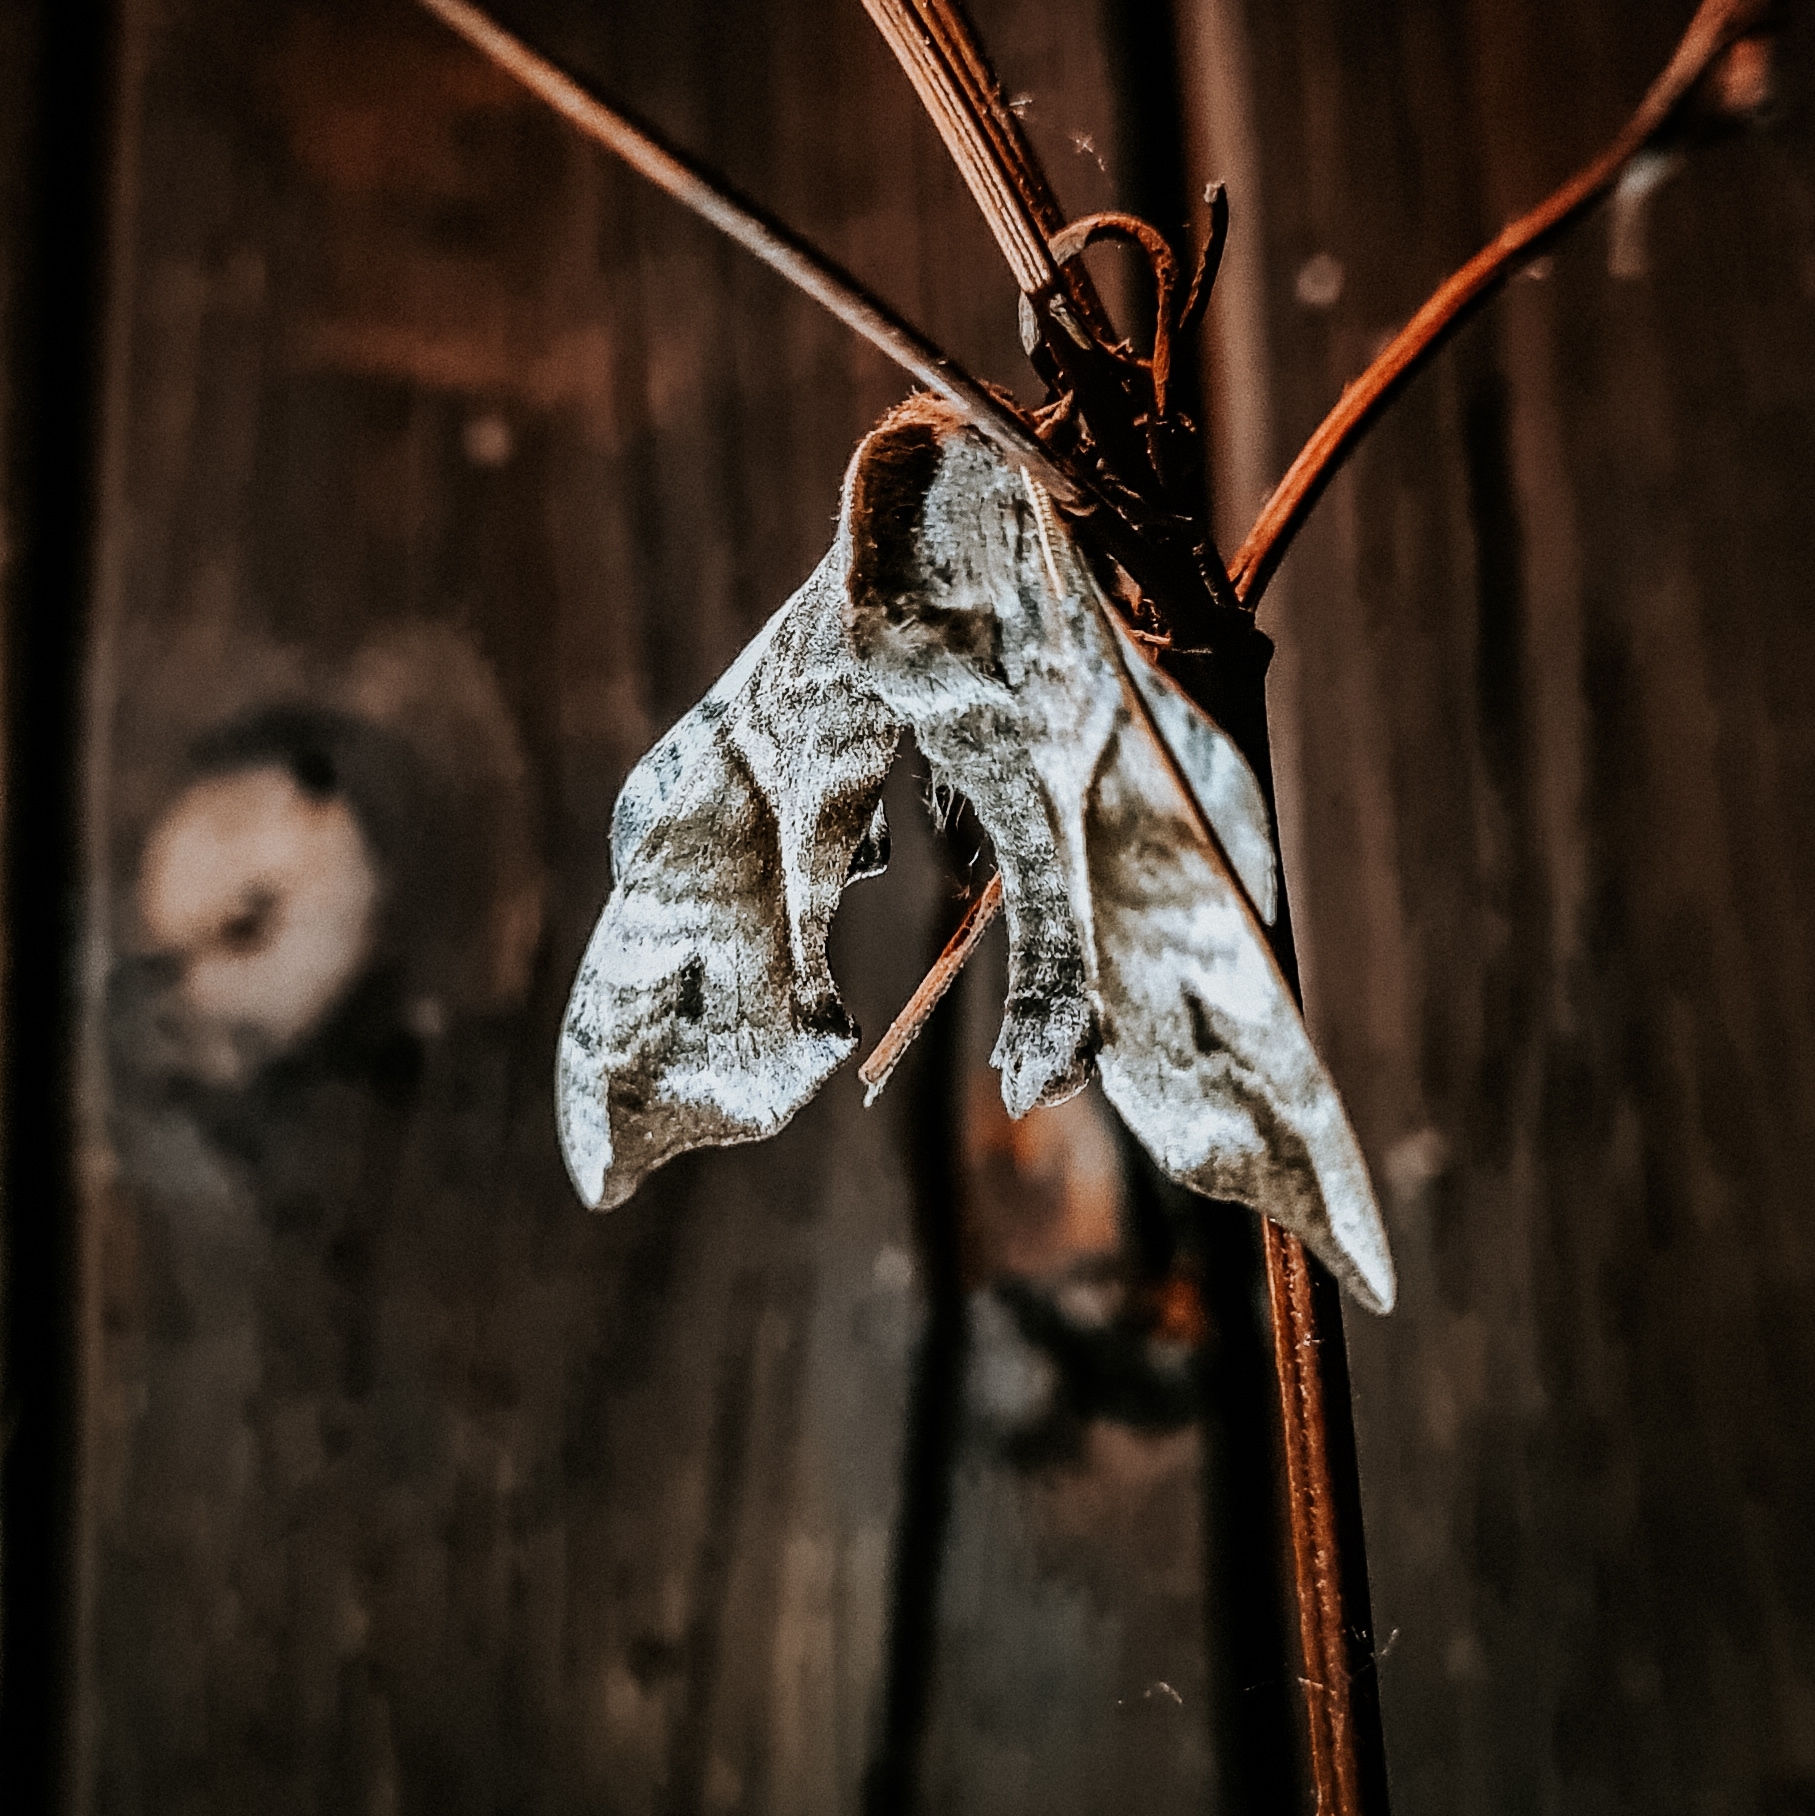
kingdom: Animalia
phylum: Arthropoda
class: Insecta
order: Lepidoptera
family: Sphingidae
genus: Smerinthus
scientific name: Smerinthus ocellata
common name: Eyed hawk-moth
